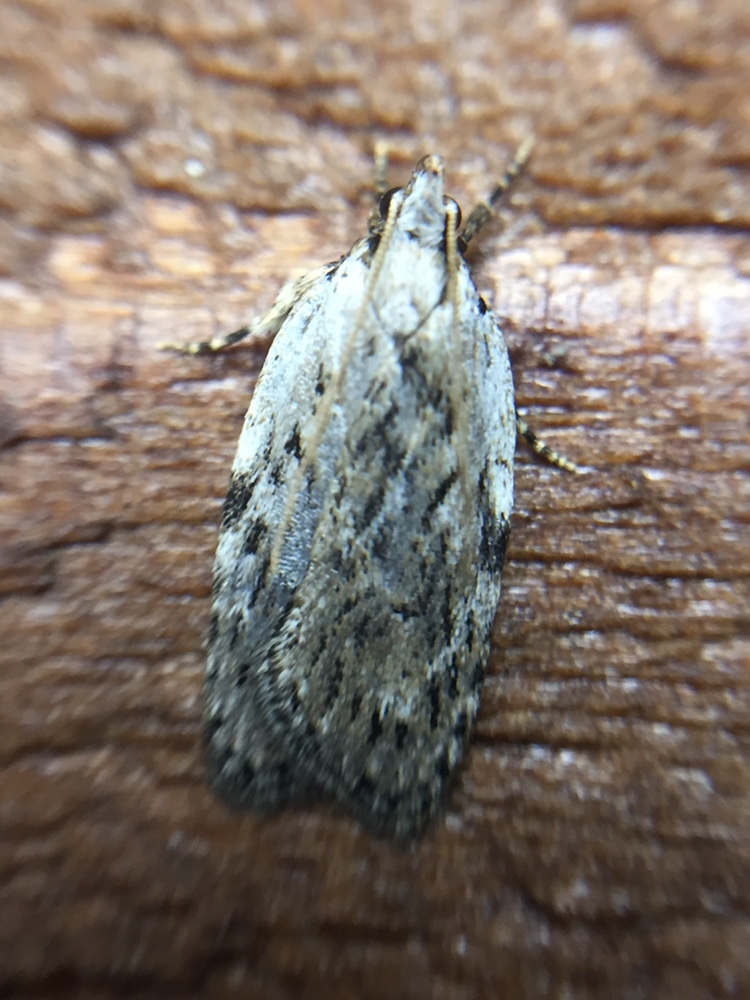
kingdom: Animalia
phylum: Arthropoda
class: Insecta
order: Lepidoptera
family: Depressariidae
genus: Phaeosaces
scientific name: Phaeosaces compsotypa
